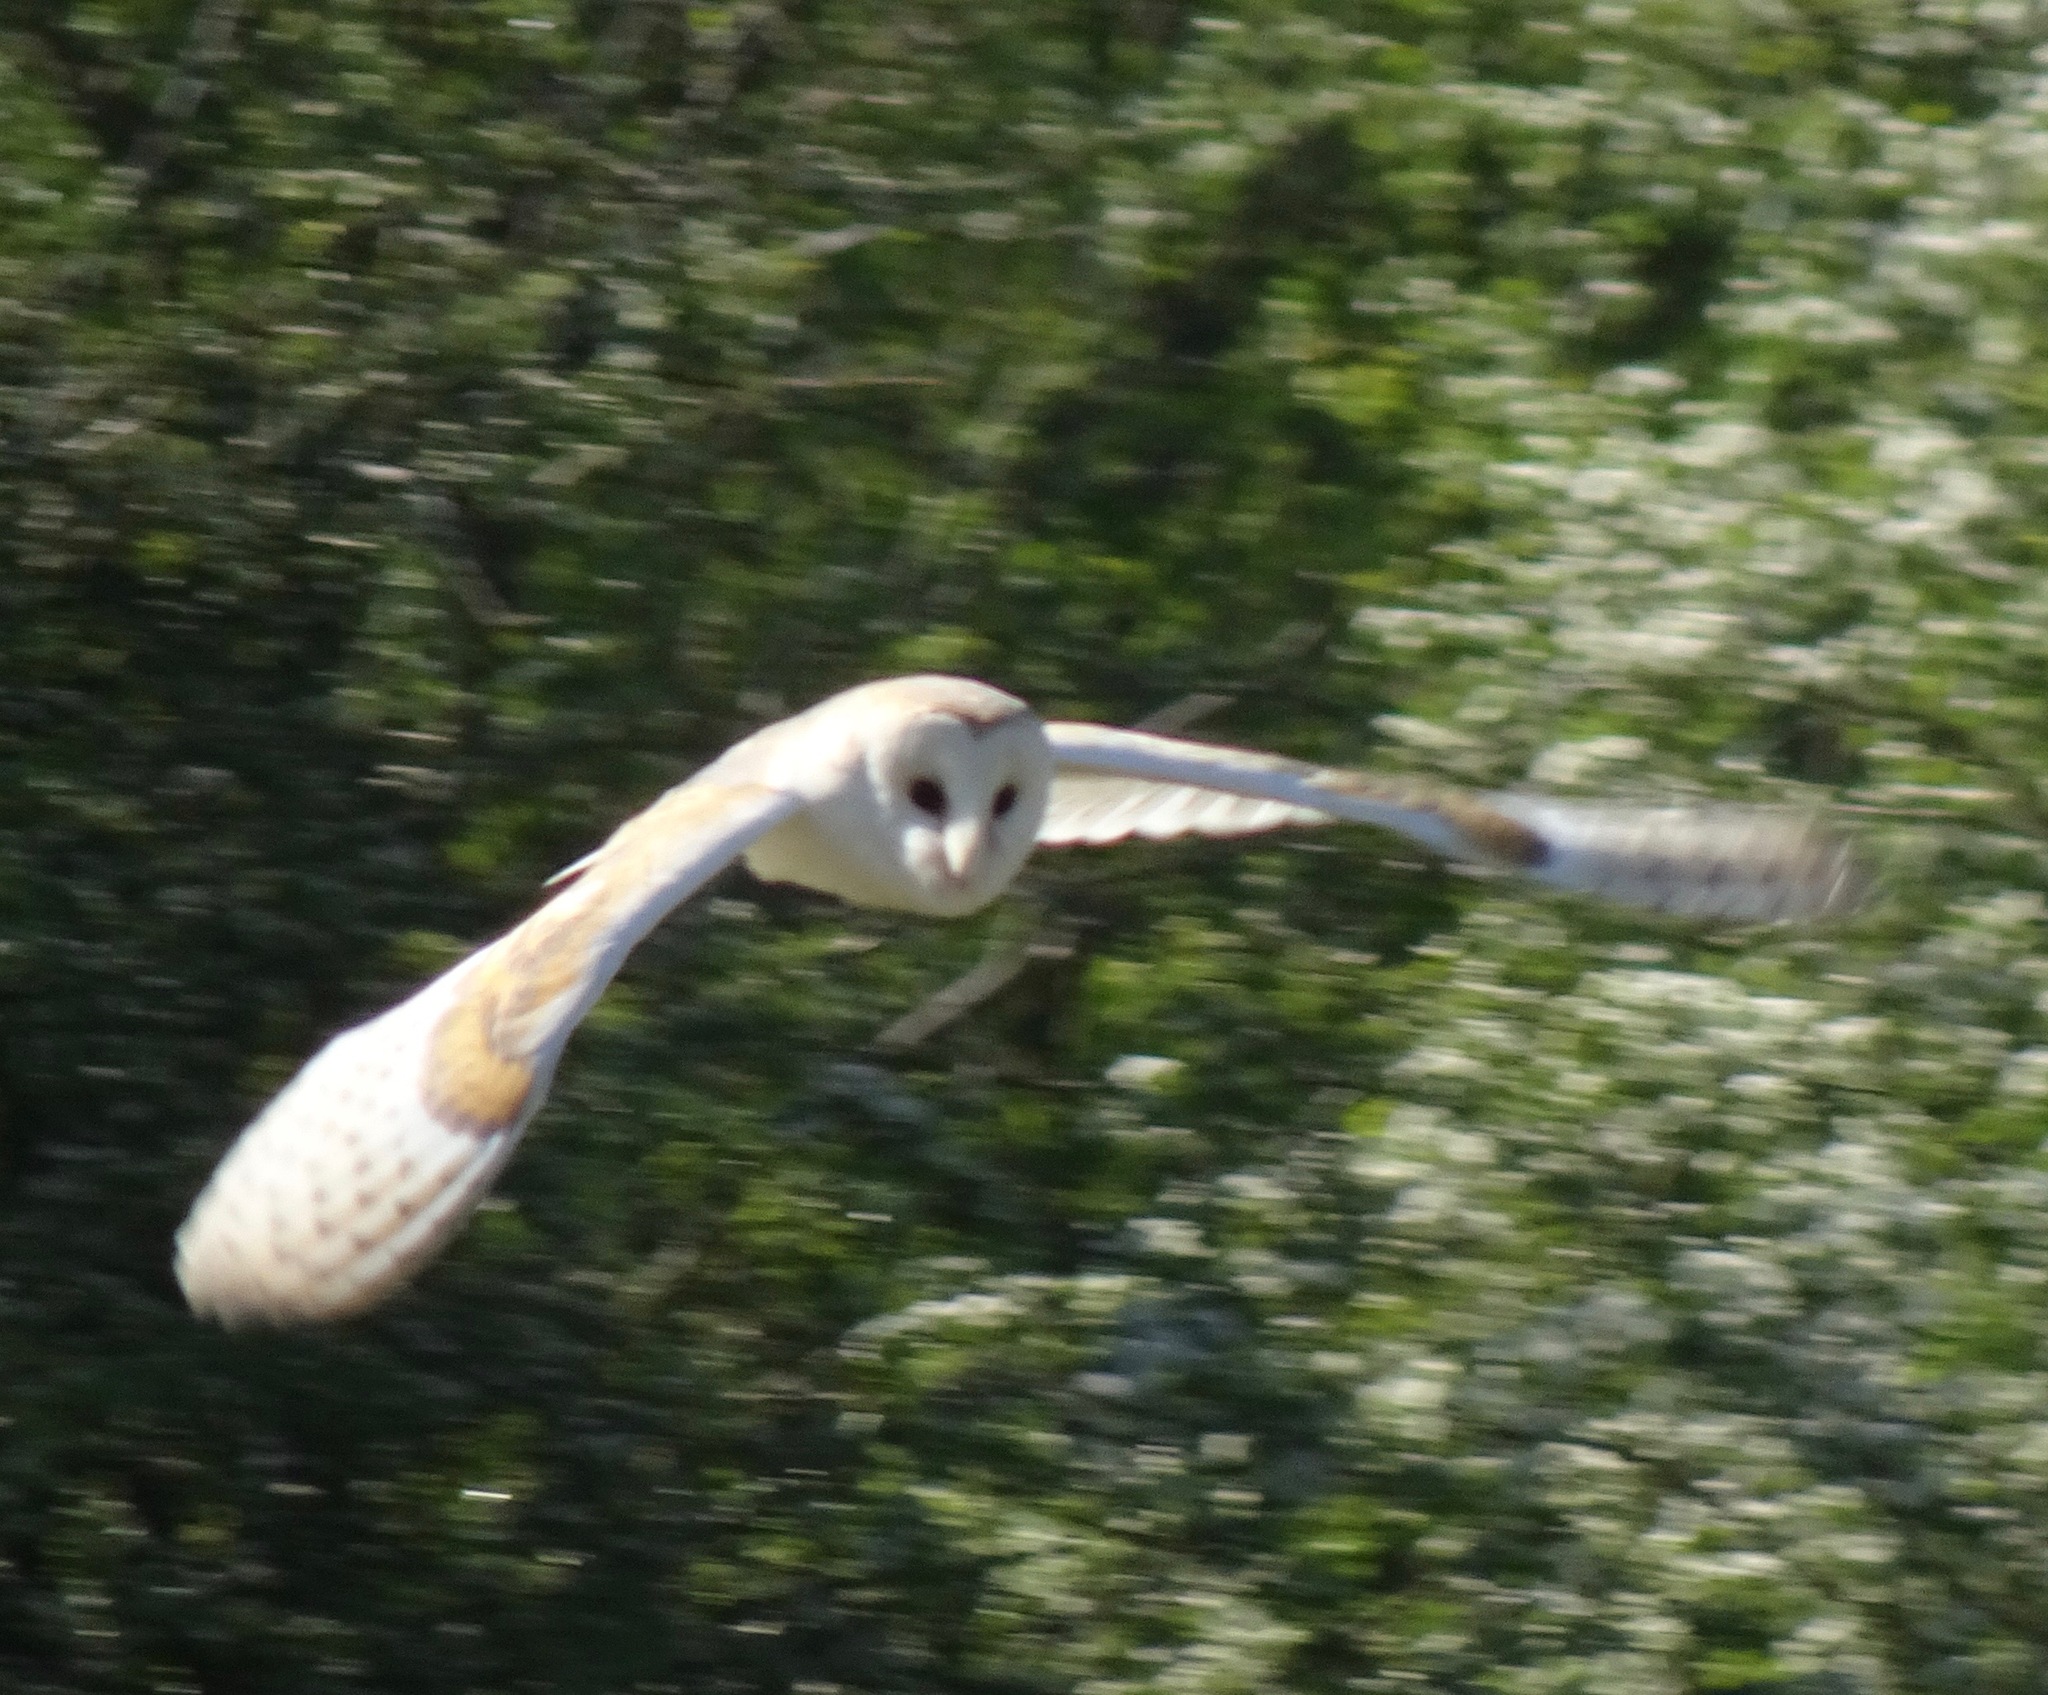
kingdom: Animalia
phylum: Chordata
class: Aves
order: Strigiformes
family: Tytonidae
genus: Tyto
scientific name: Tyto alba
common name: Barn owl
